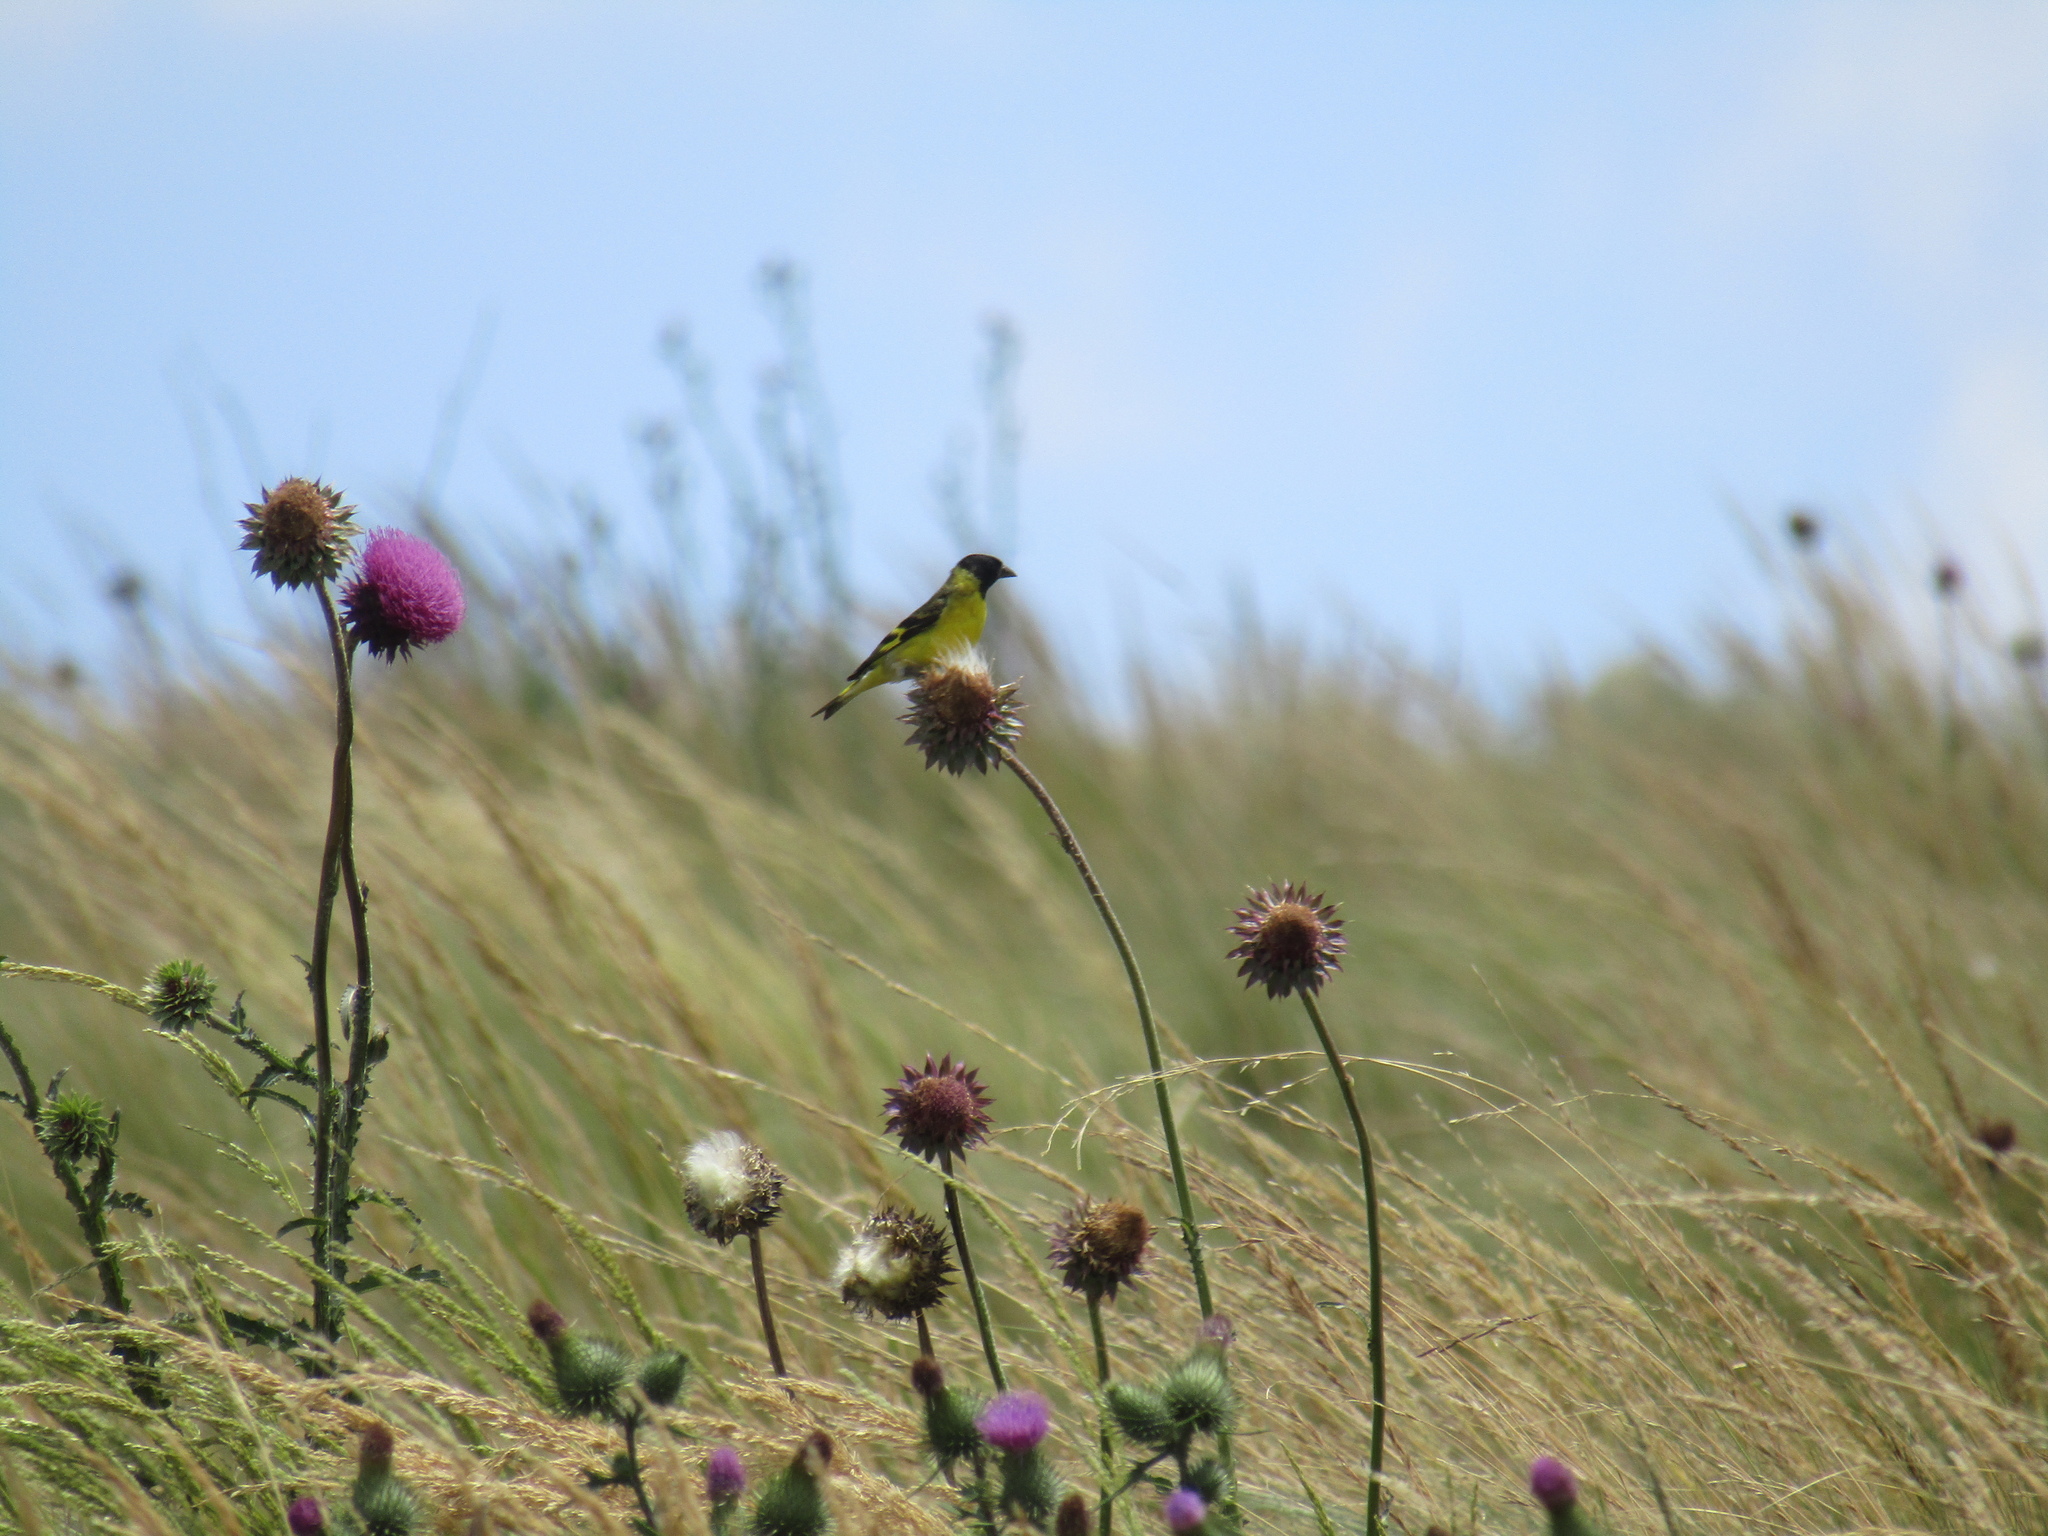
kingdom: Animalia
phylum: Chordata
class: Aves
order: Passeriformes
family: Fringillidae
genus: Spinus
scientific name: Spinus magellanicus
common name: Hooded siskin
